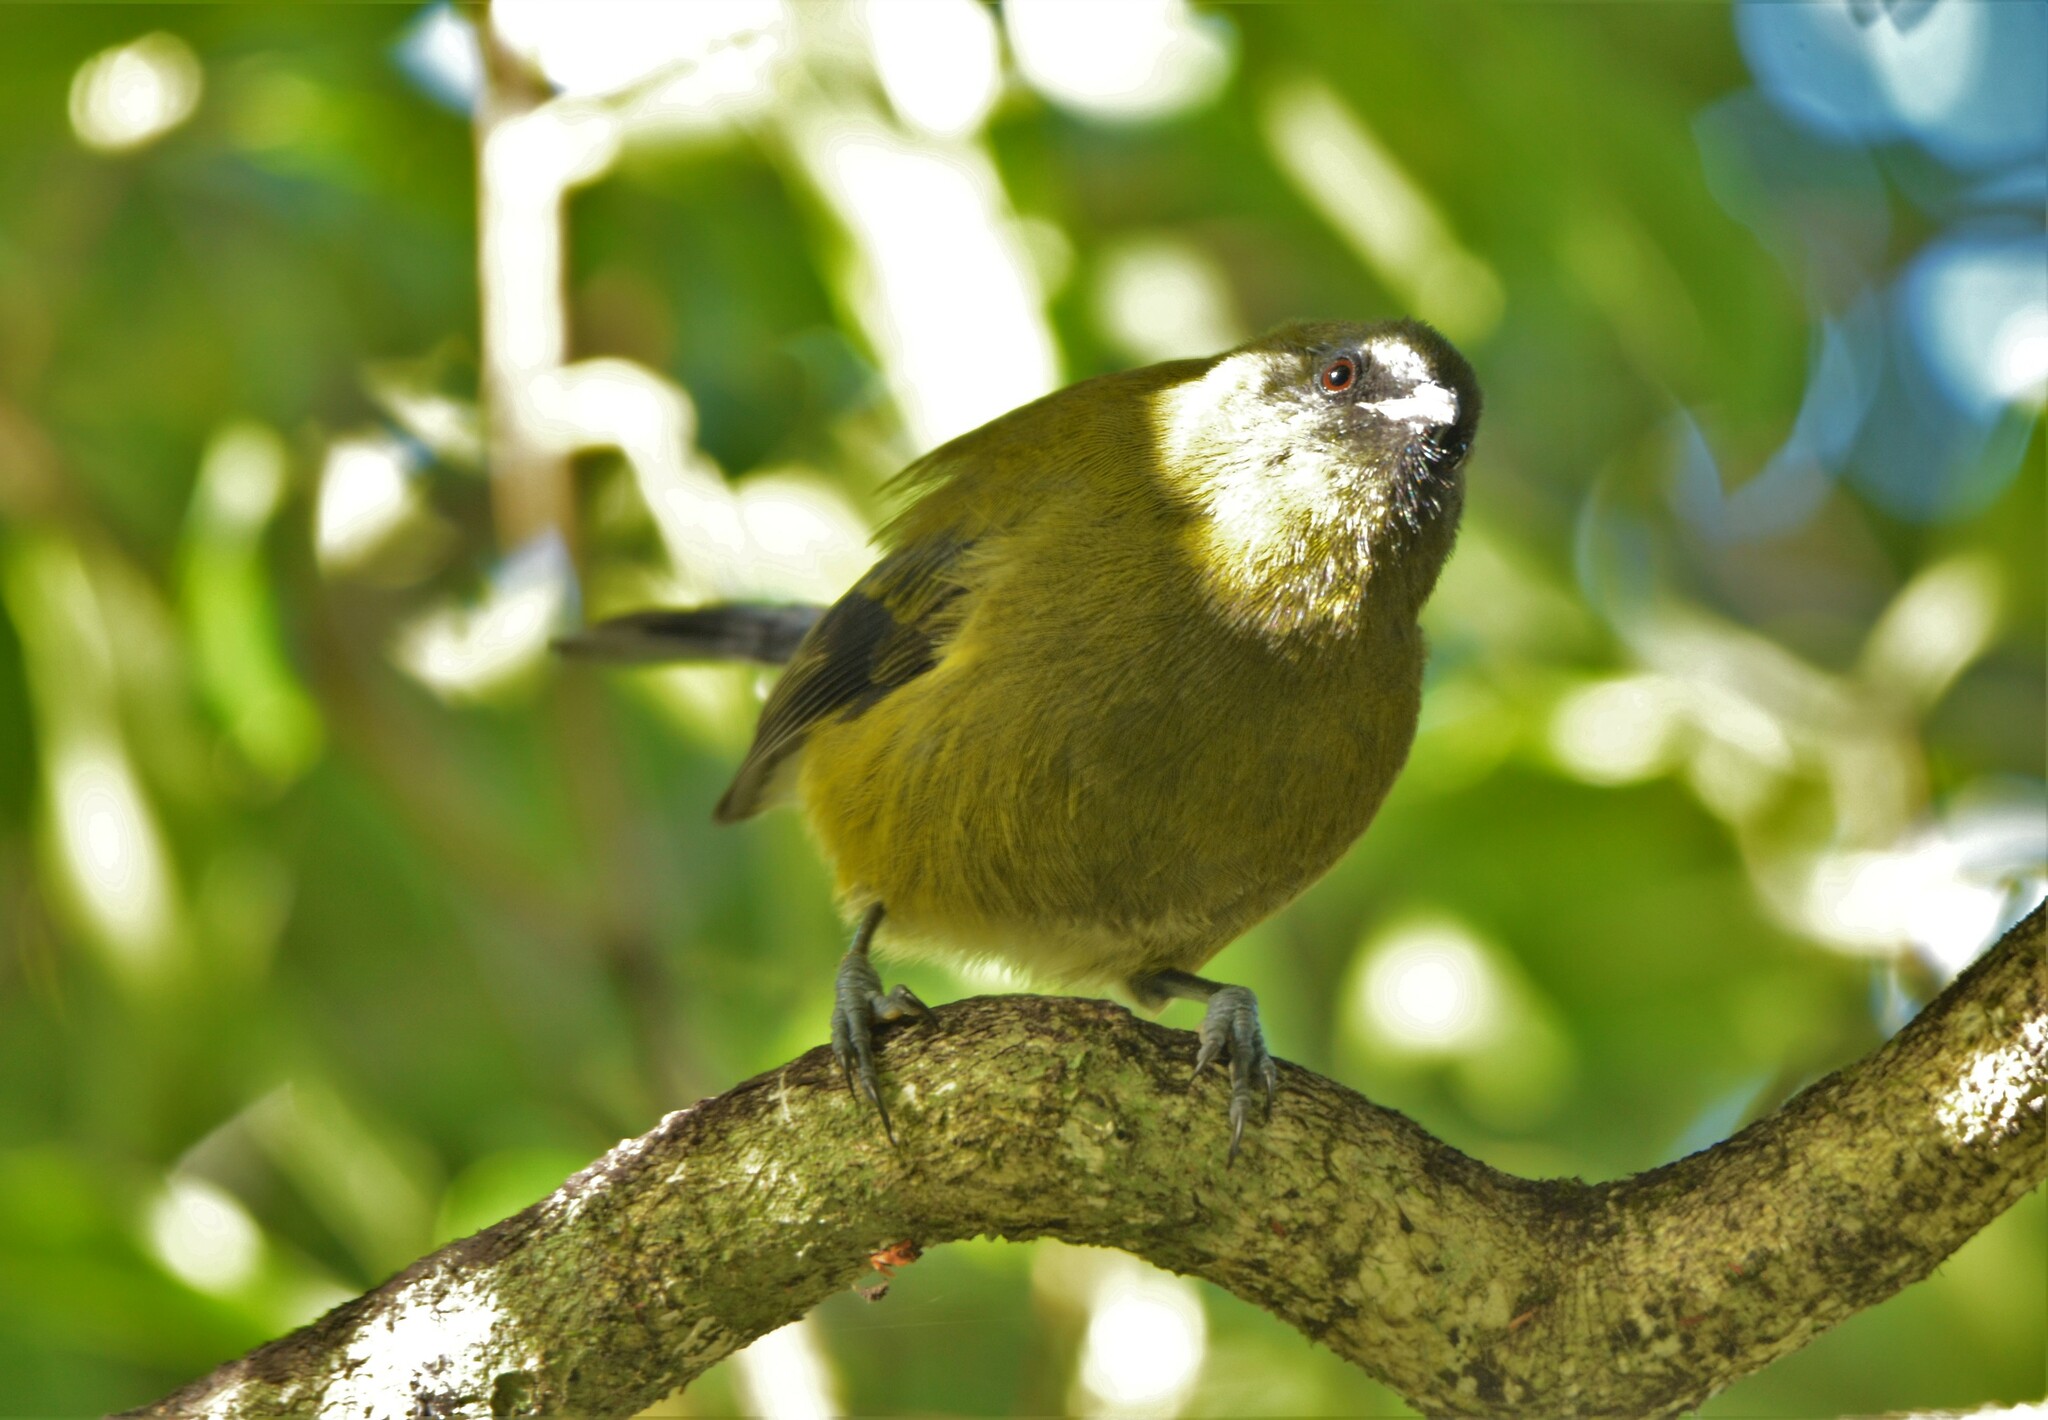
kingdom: Animalia
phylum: Chordata
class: Aves
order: Passeriformes
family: Meliphagidae
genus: Anthornis
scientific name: Anthornis melanura
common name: New zealand bellbird
